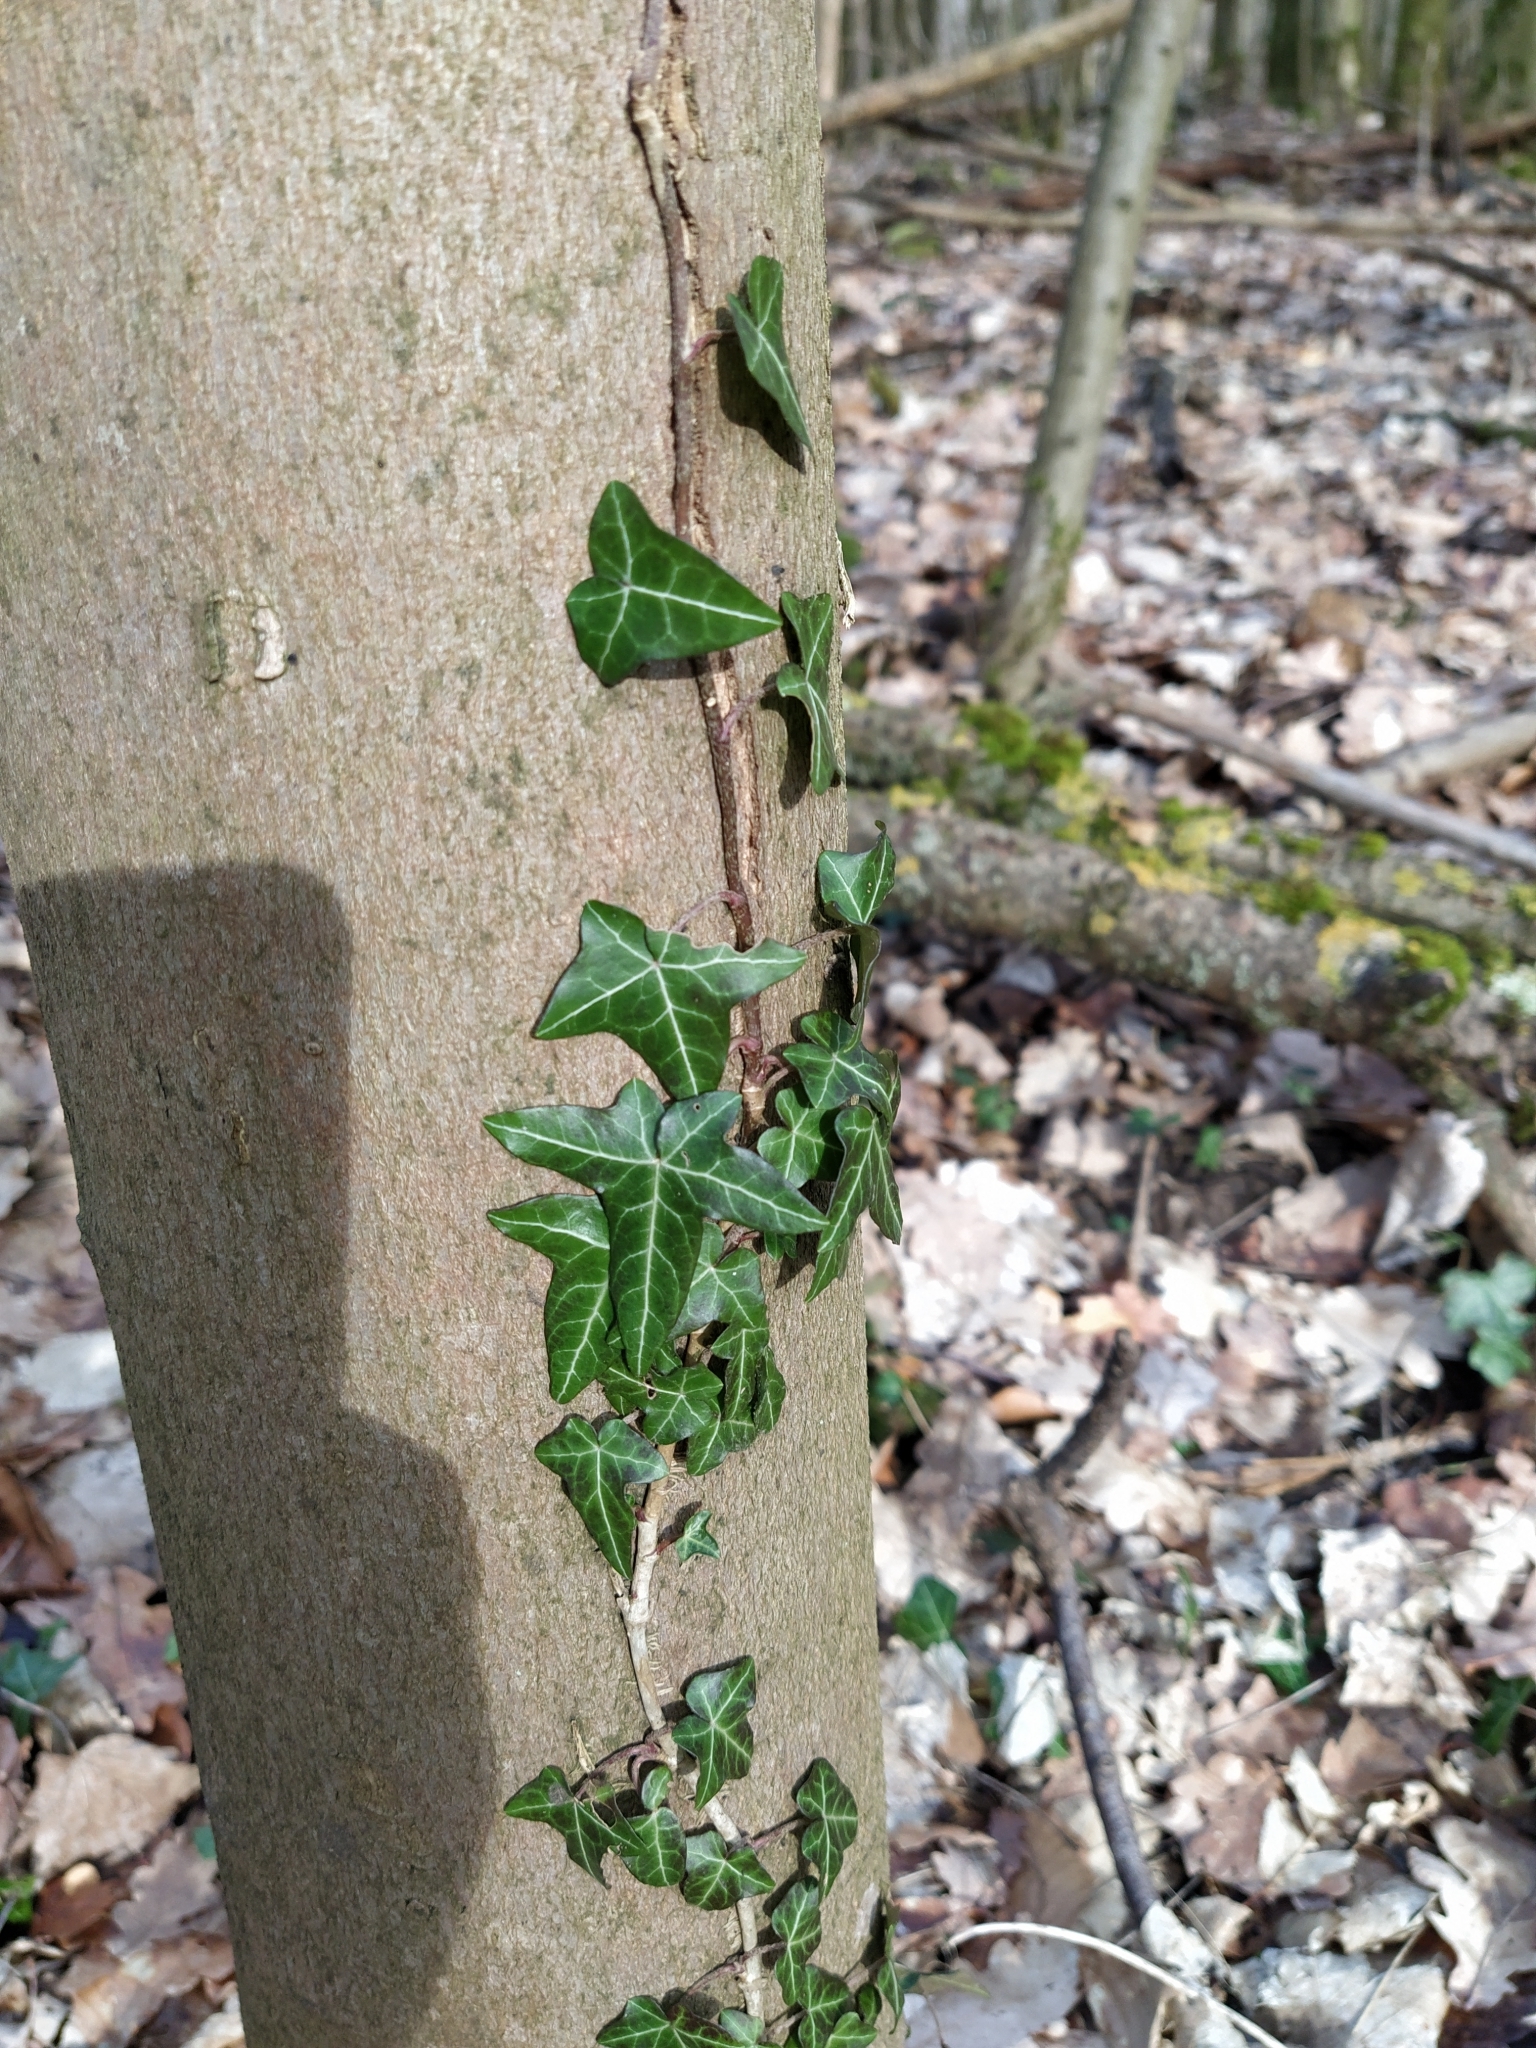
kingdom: Plantae
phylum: Tracheophyta
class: Magnoliopsida
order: Apiales
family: Araliaceae
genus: Hedera
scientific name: Hedera helix
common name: Ivy
